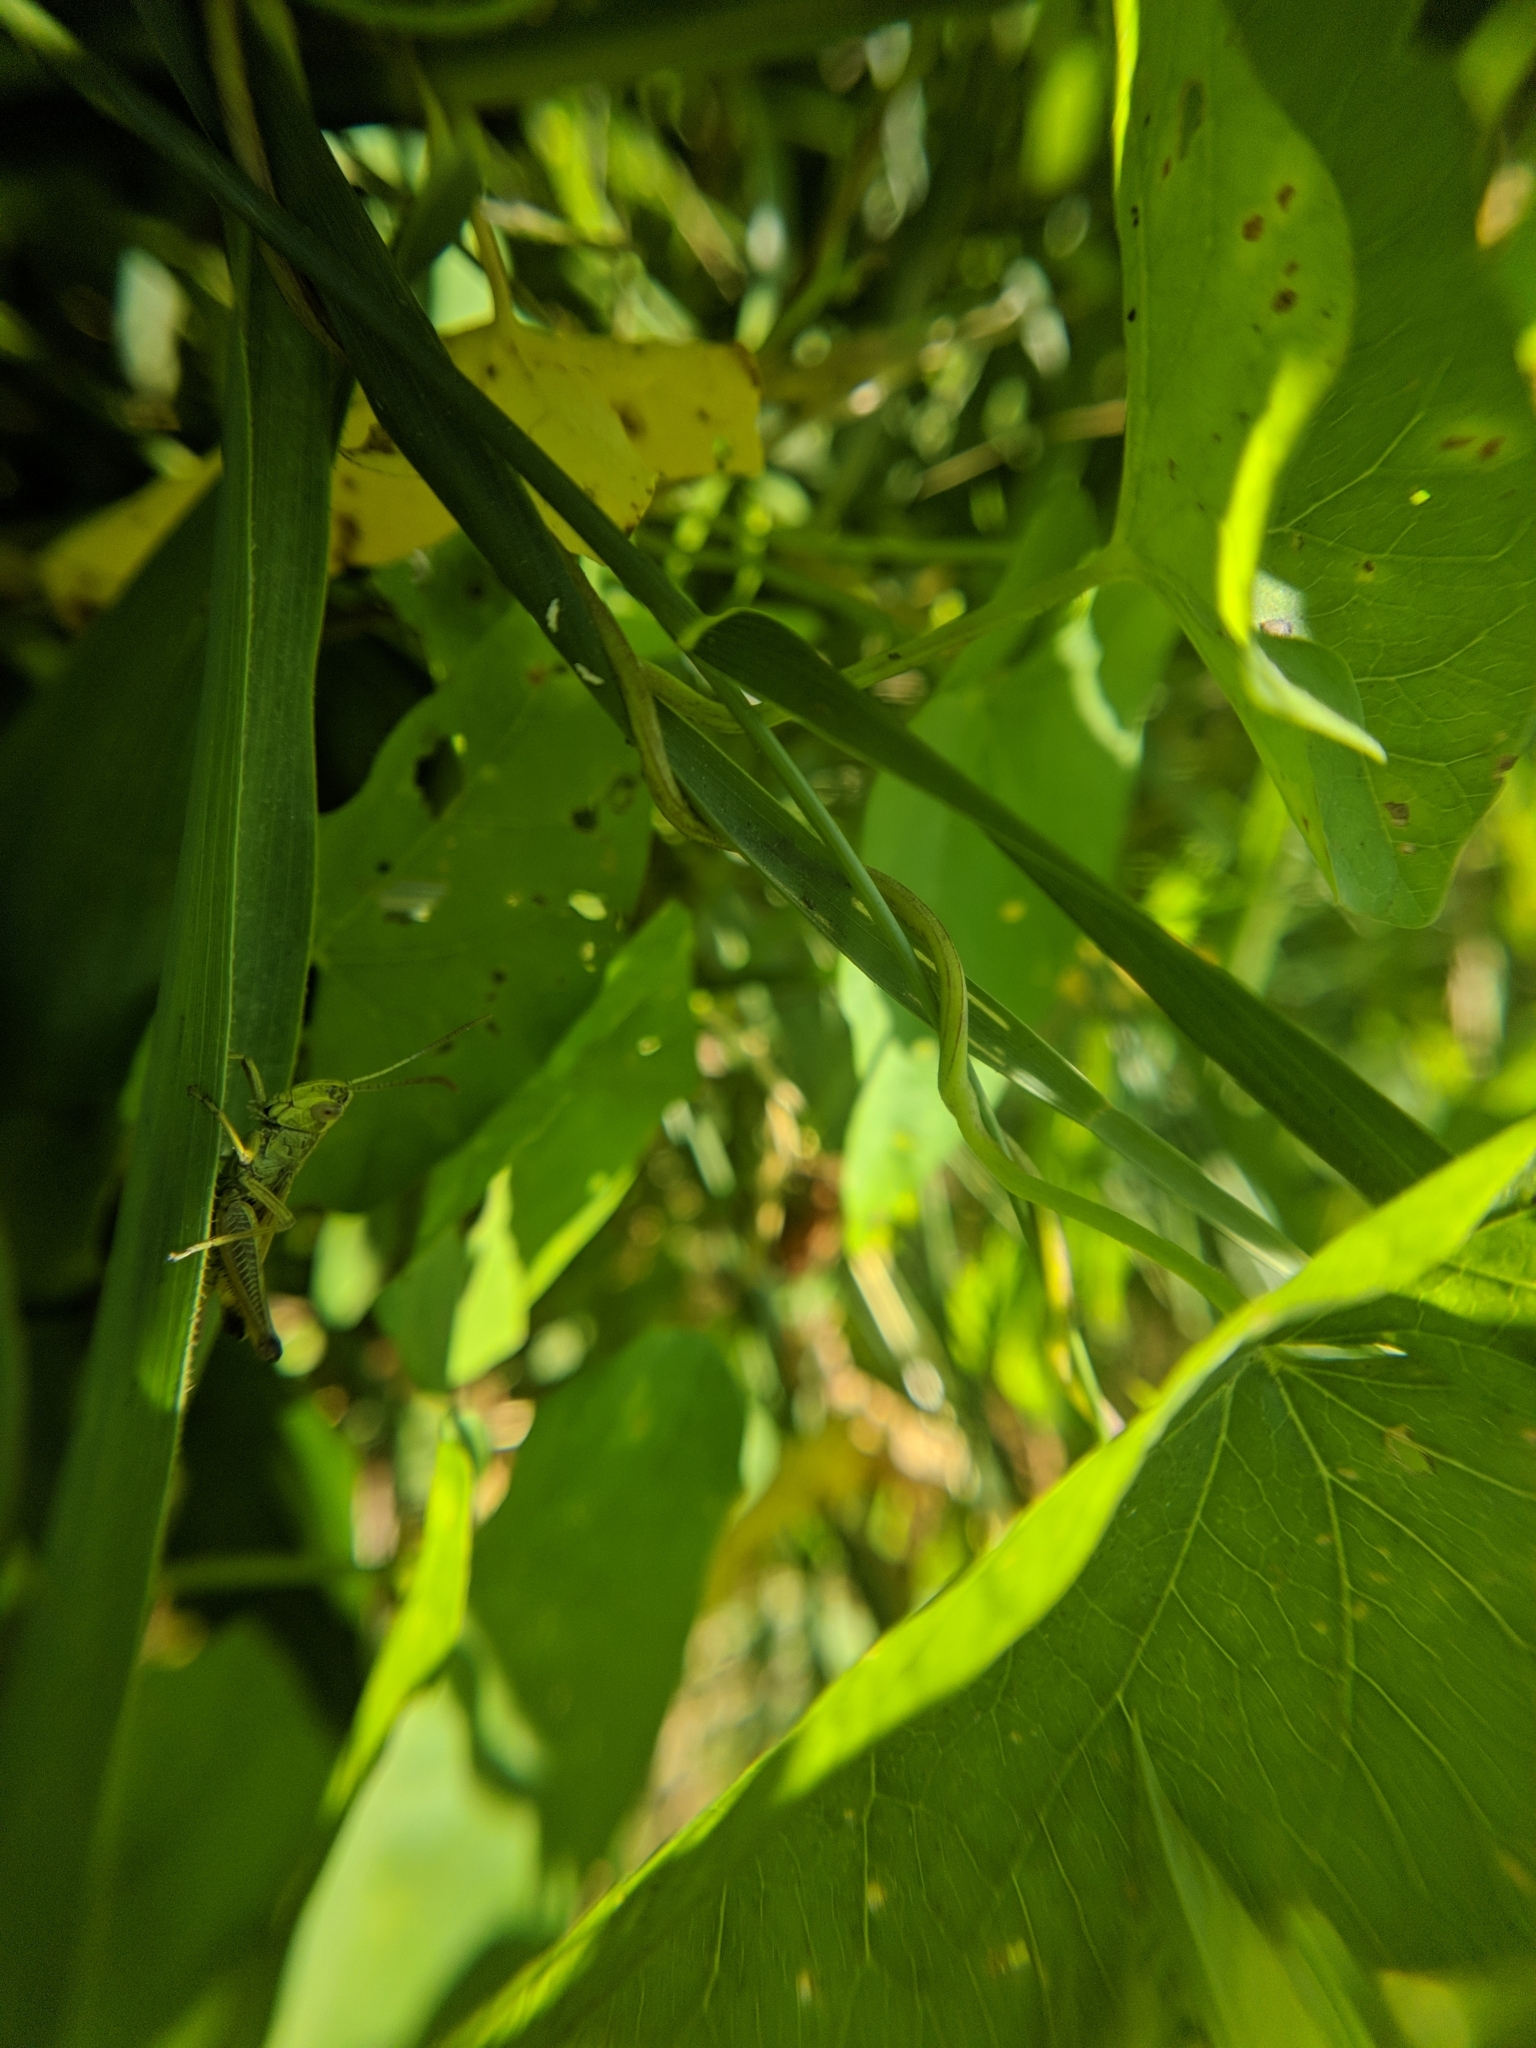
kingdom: Animalia
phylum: Arthropoda
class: Insecta
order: Orthoptera
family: Acrididae
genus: Pseudochorthippus
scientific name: Pseudochorthippus parallelus
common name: Meadow grasshopper
